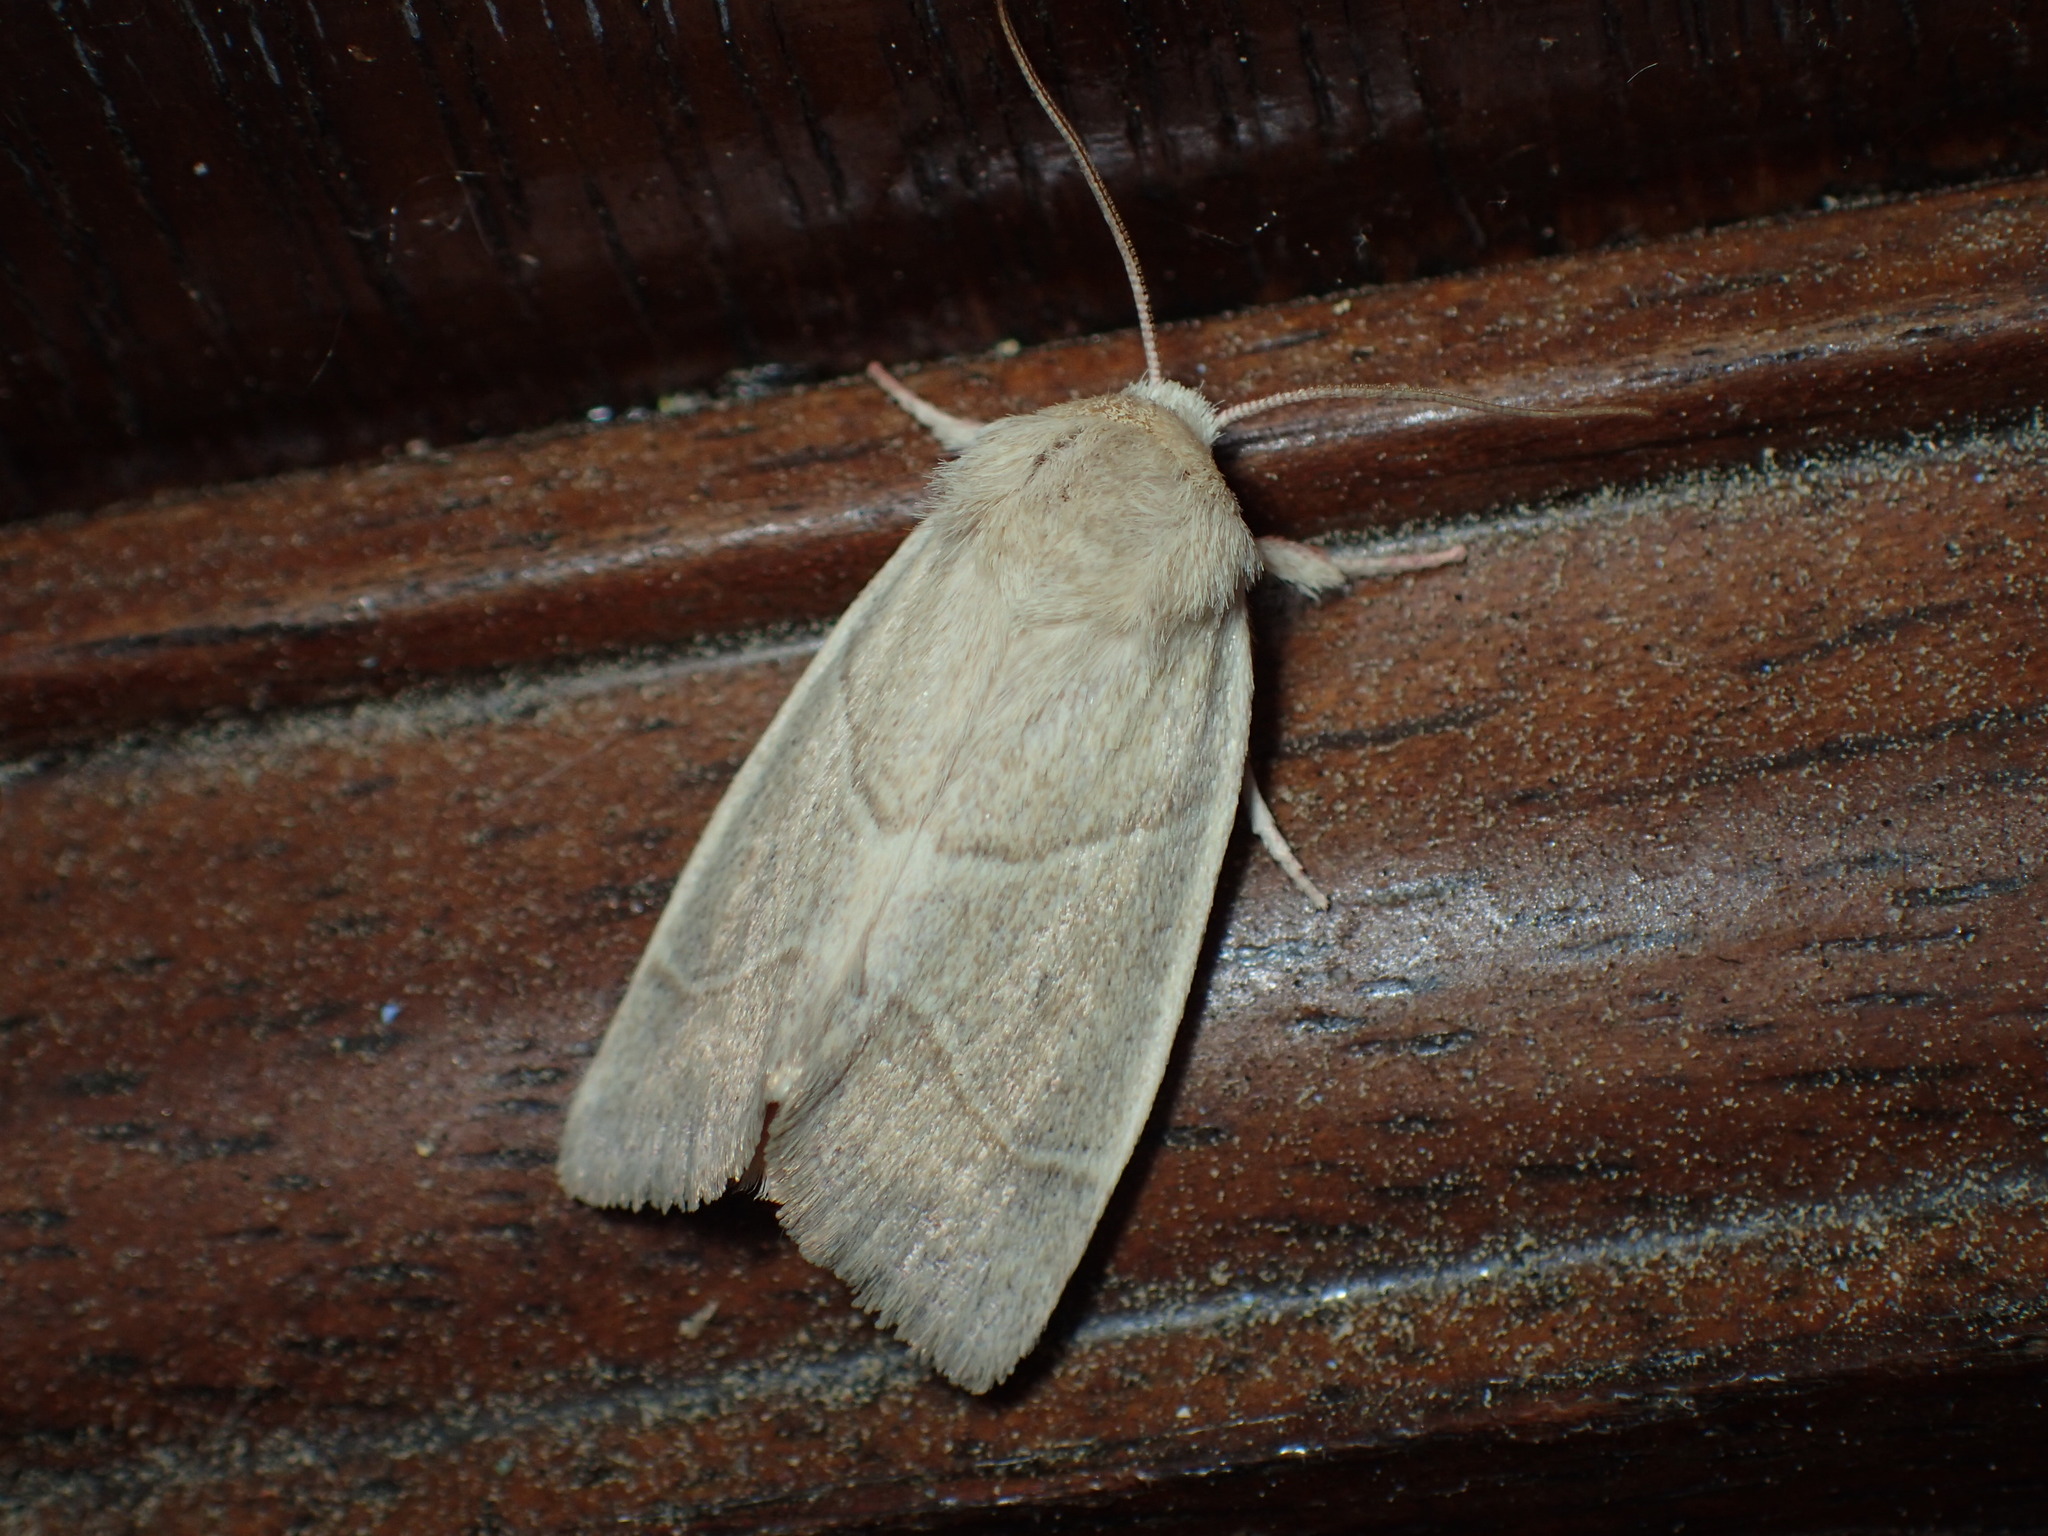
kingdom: Animalia
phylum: Arthropoda
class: Insecta
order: Lepidoptera
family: Noctuidae
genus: Cosmia
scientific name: Cosmia calami
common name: American dun-bar moth
